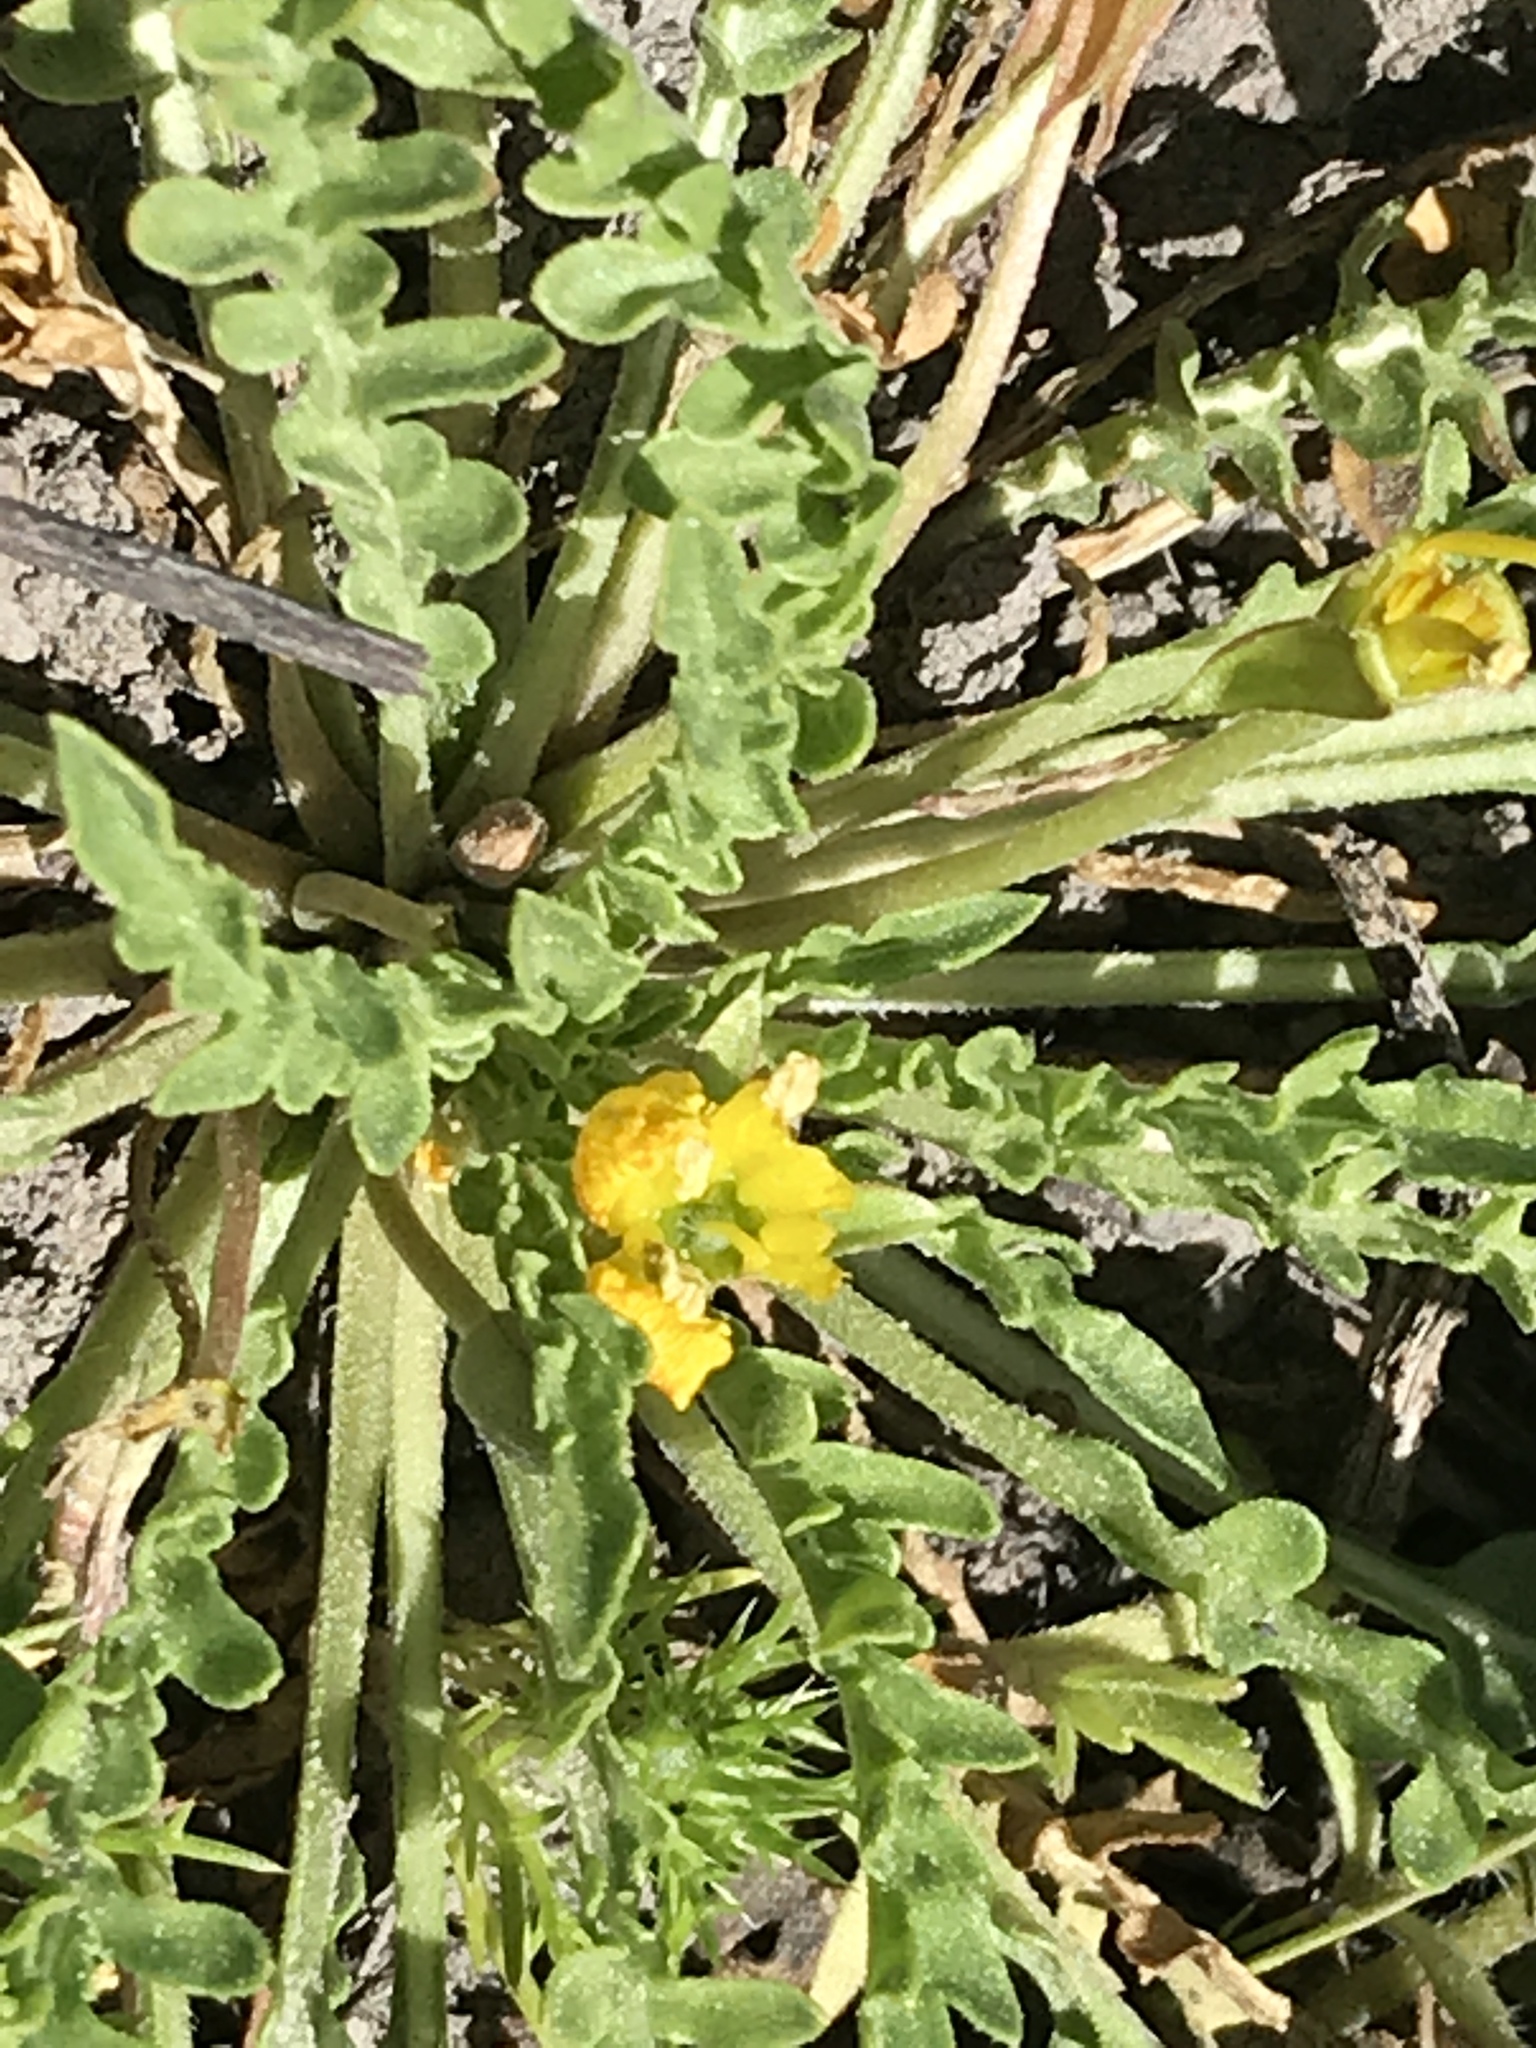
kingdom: Plantae
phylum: Tracheophyta
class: Magnoliopsida
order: Myrtales
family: Onagraceae
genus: Taraxia
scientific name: Taraxia tanacetifolia
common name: Tansyleaf evening primrose
